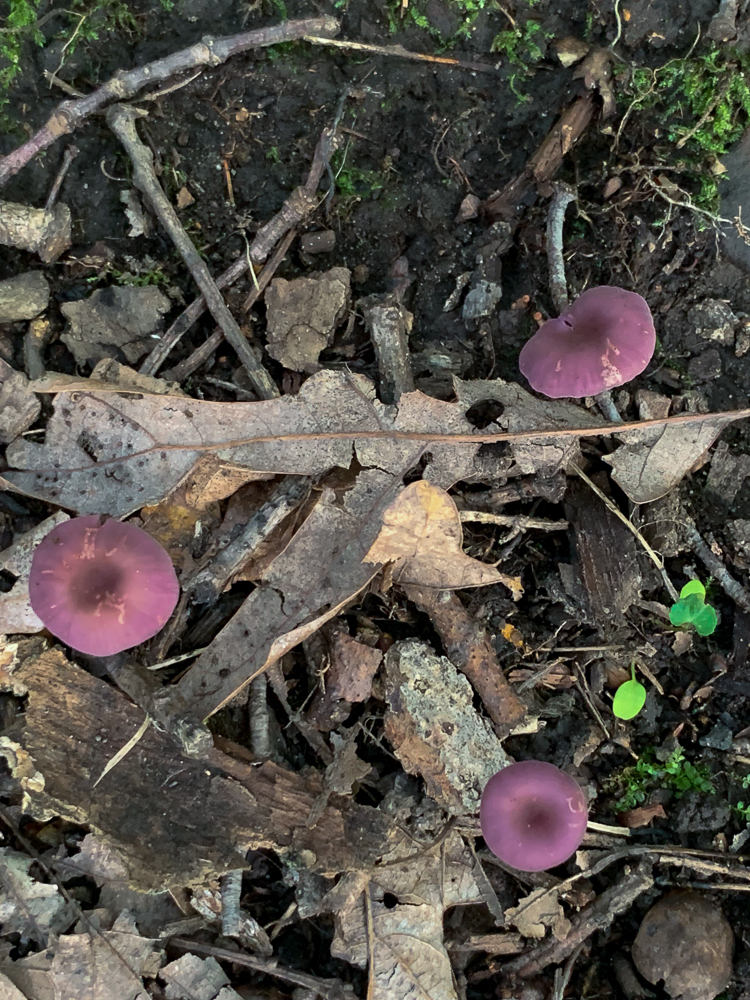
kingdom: Fungi
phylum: Basidiomycota
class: Agaricomycetes
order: Agaricales
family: Hydnangiaceae
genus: Laccaria
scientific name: Laccaria amethystina
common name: Amethyst deceiver
